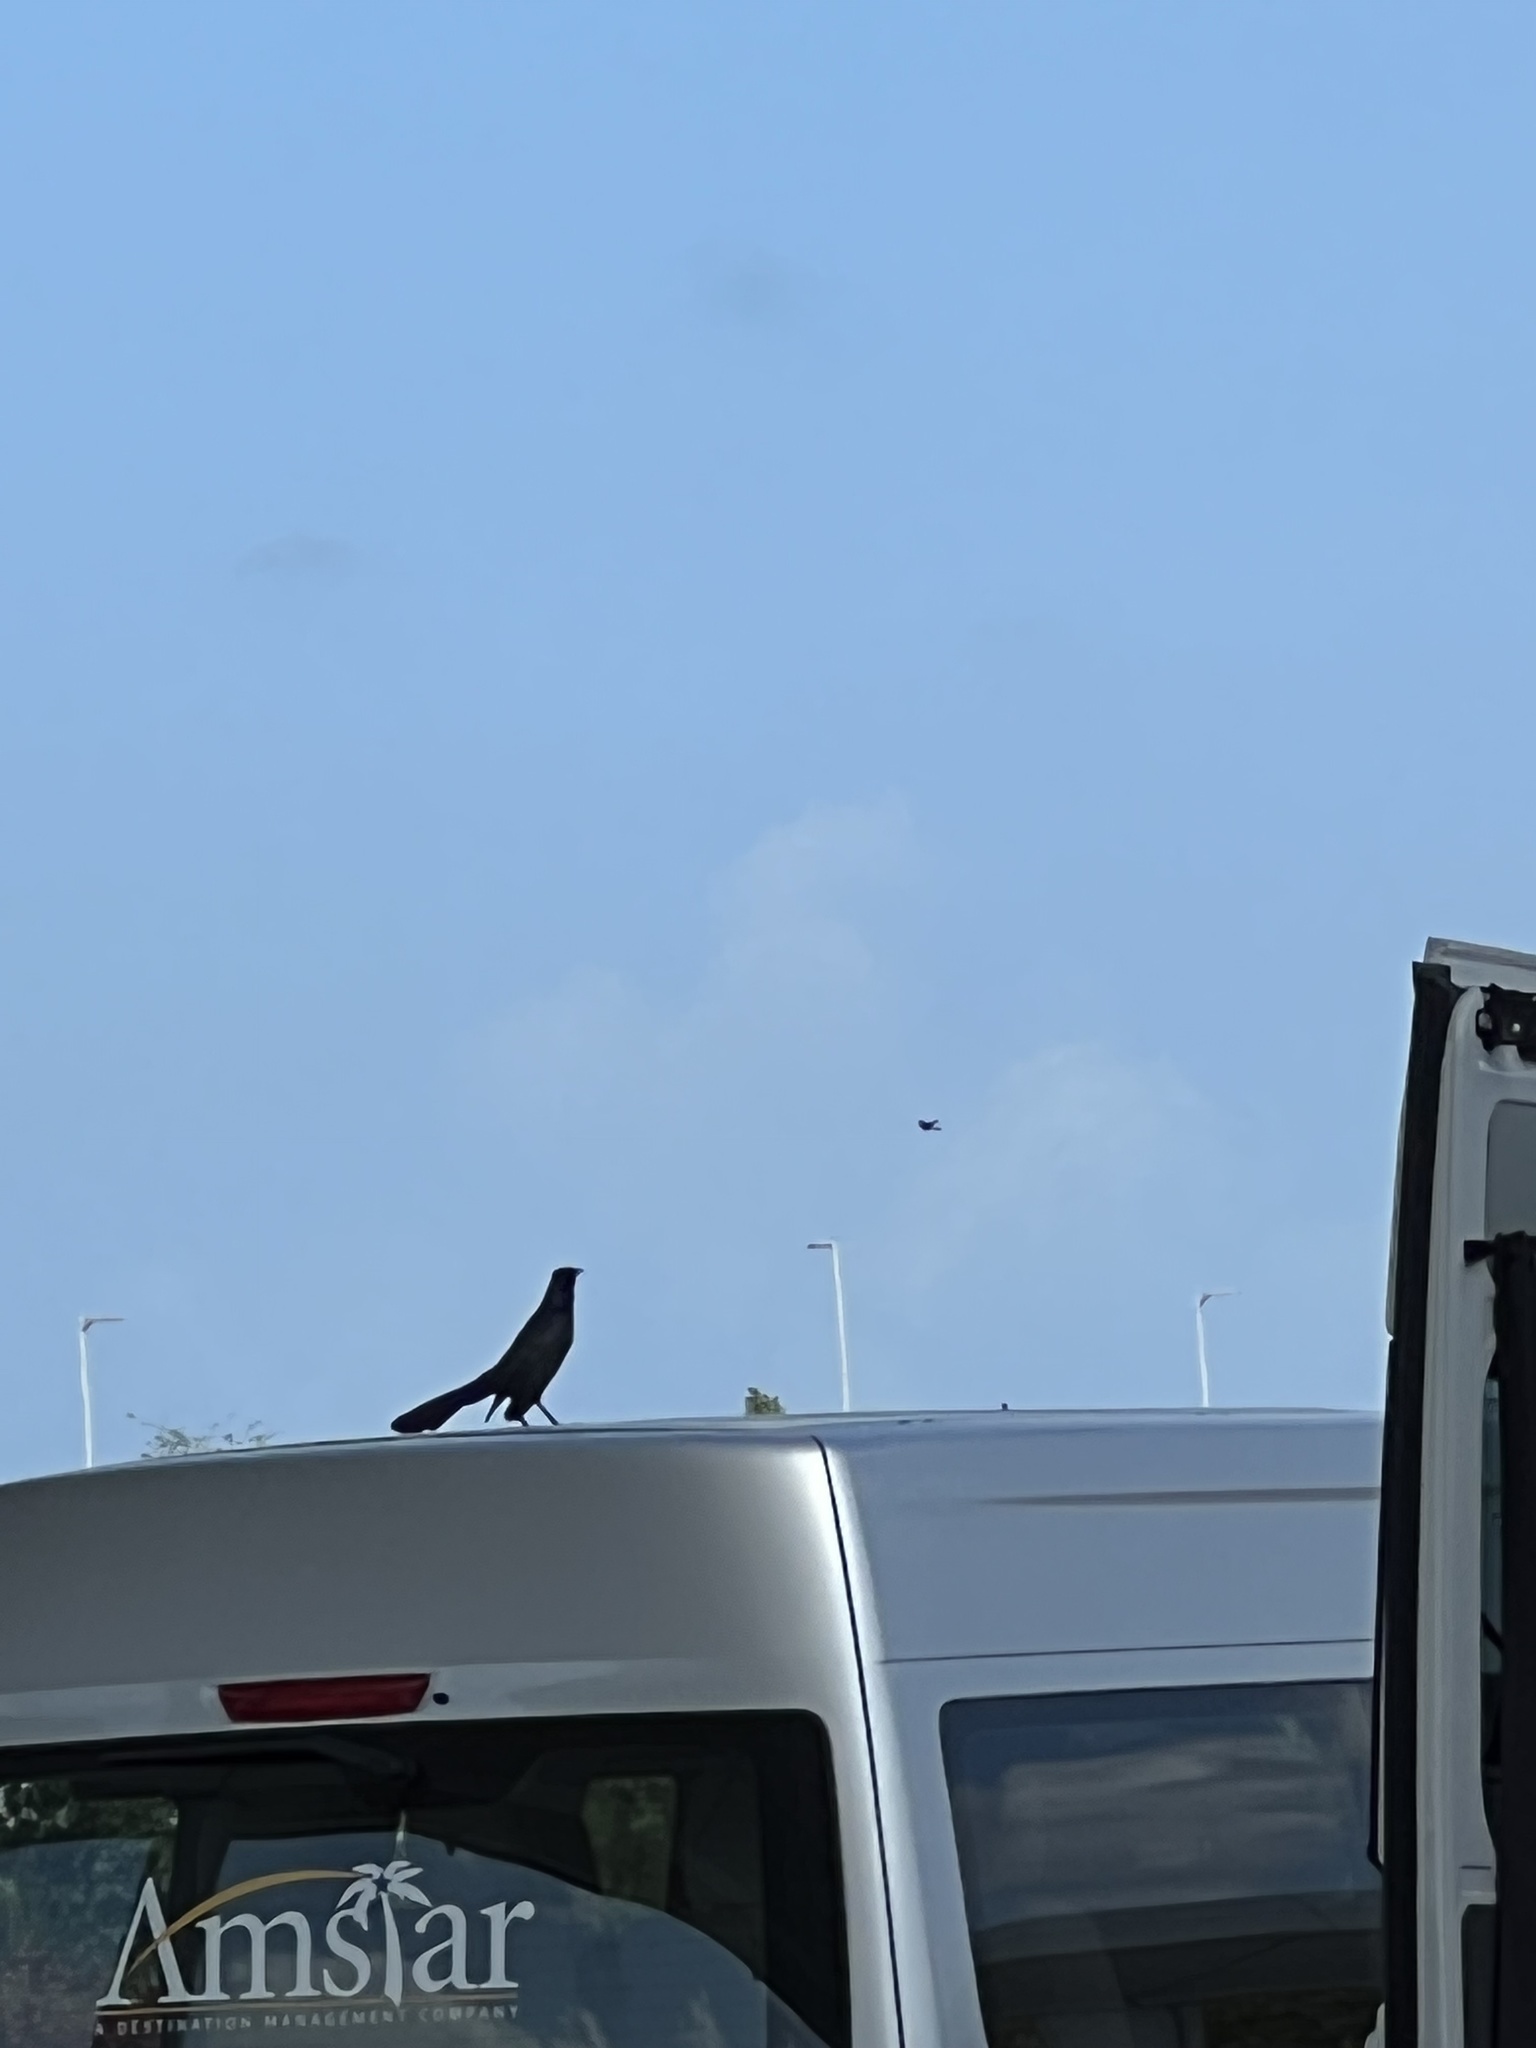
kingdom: Animalia
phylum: Chordata
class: Aves
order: Passeriformes
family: Icteridae
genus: Quiscalus
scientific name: Quiscalus mexicanus
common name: Great-tailed grackle
